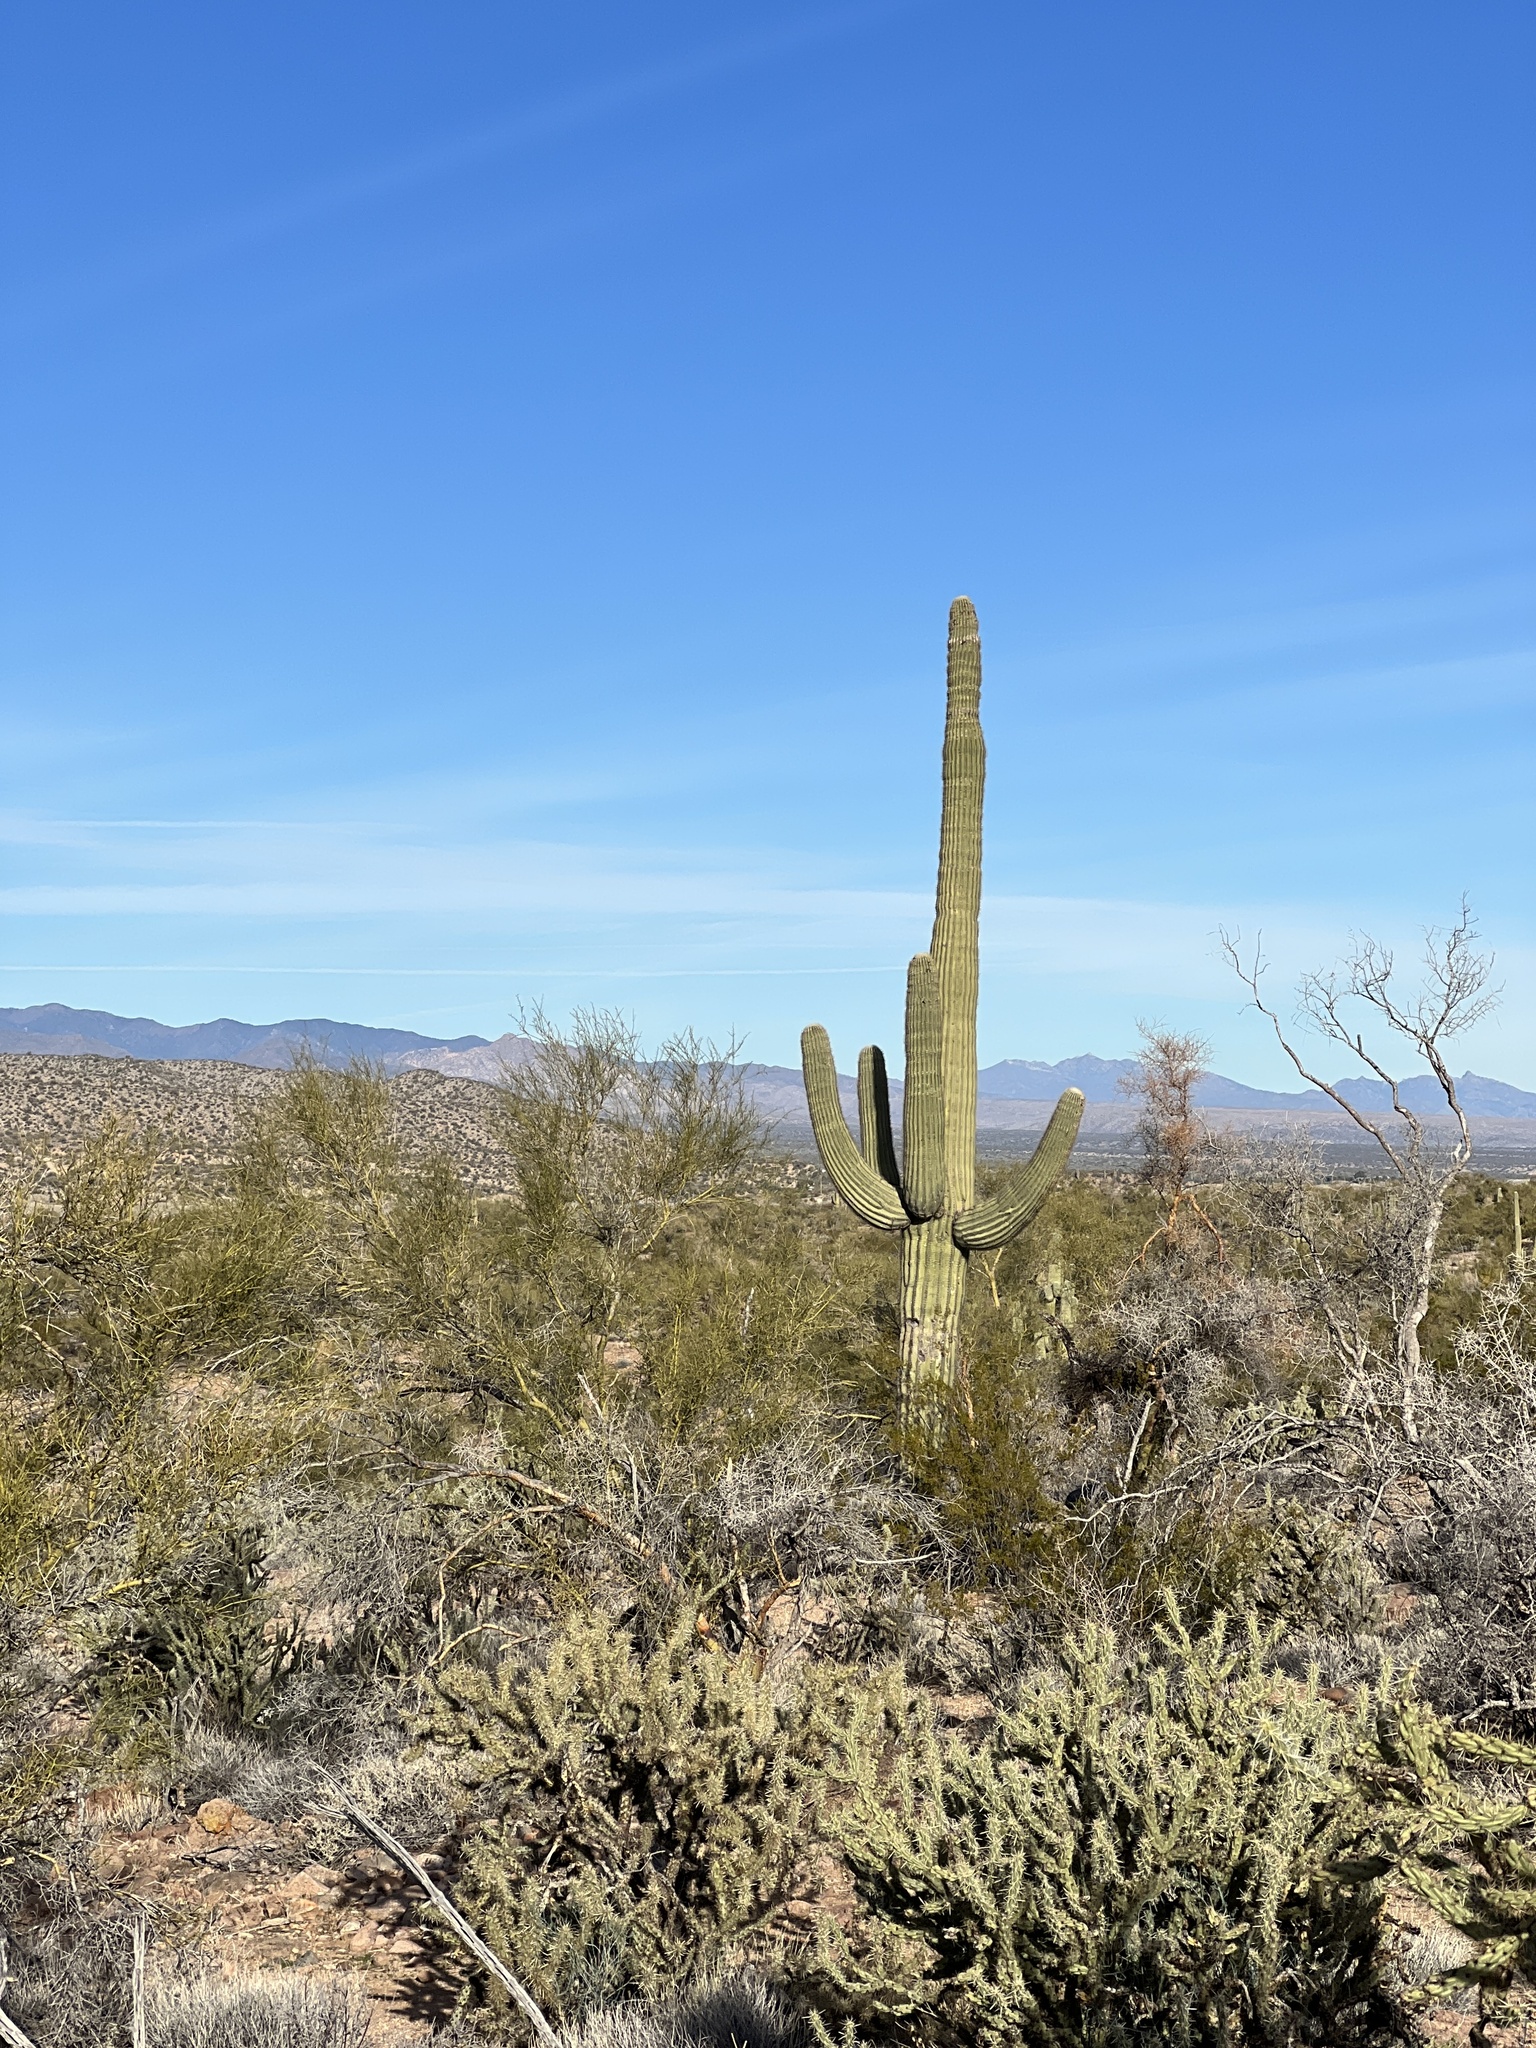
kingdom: Plantae
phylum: Tracheophyta
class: Magnoliopsida
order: Caryophyllales
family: Cactaceae
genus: Carnegiea
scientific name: Carnegiea gigantea
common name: Saguaro
